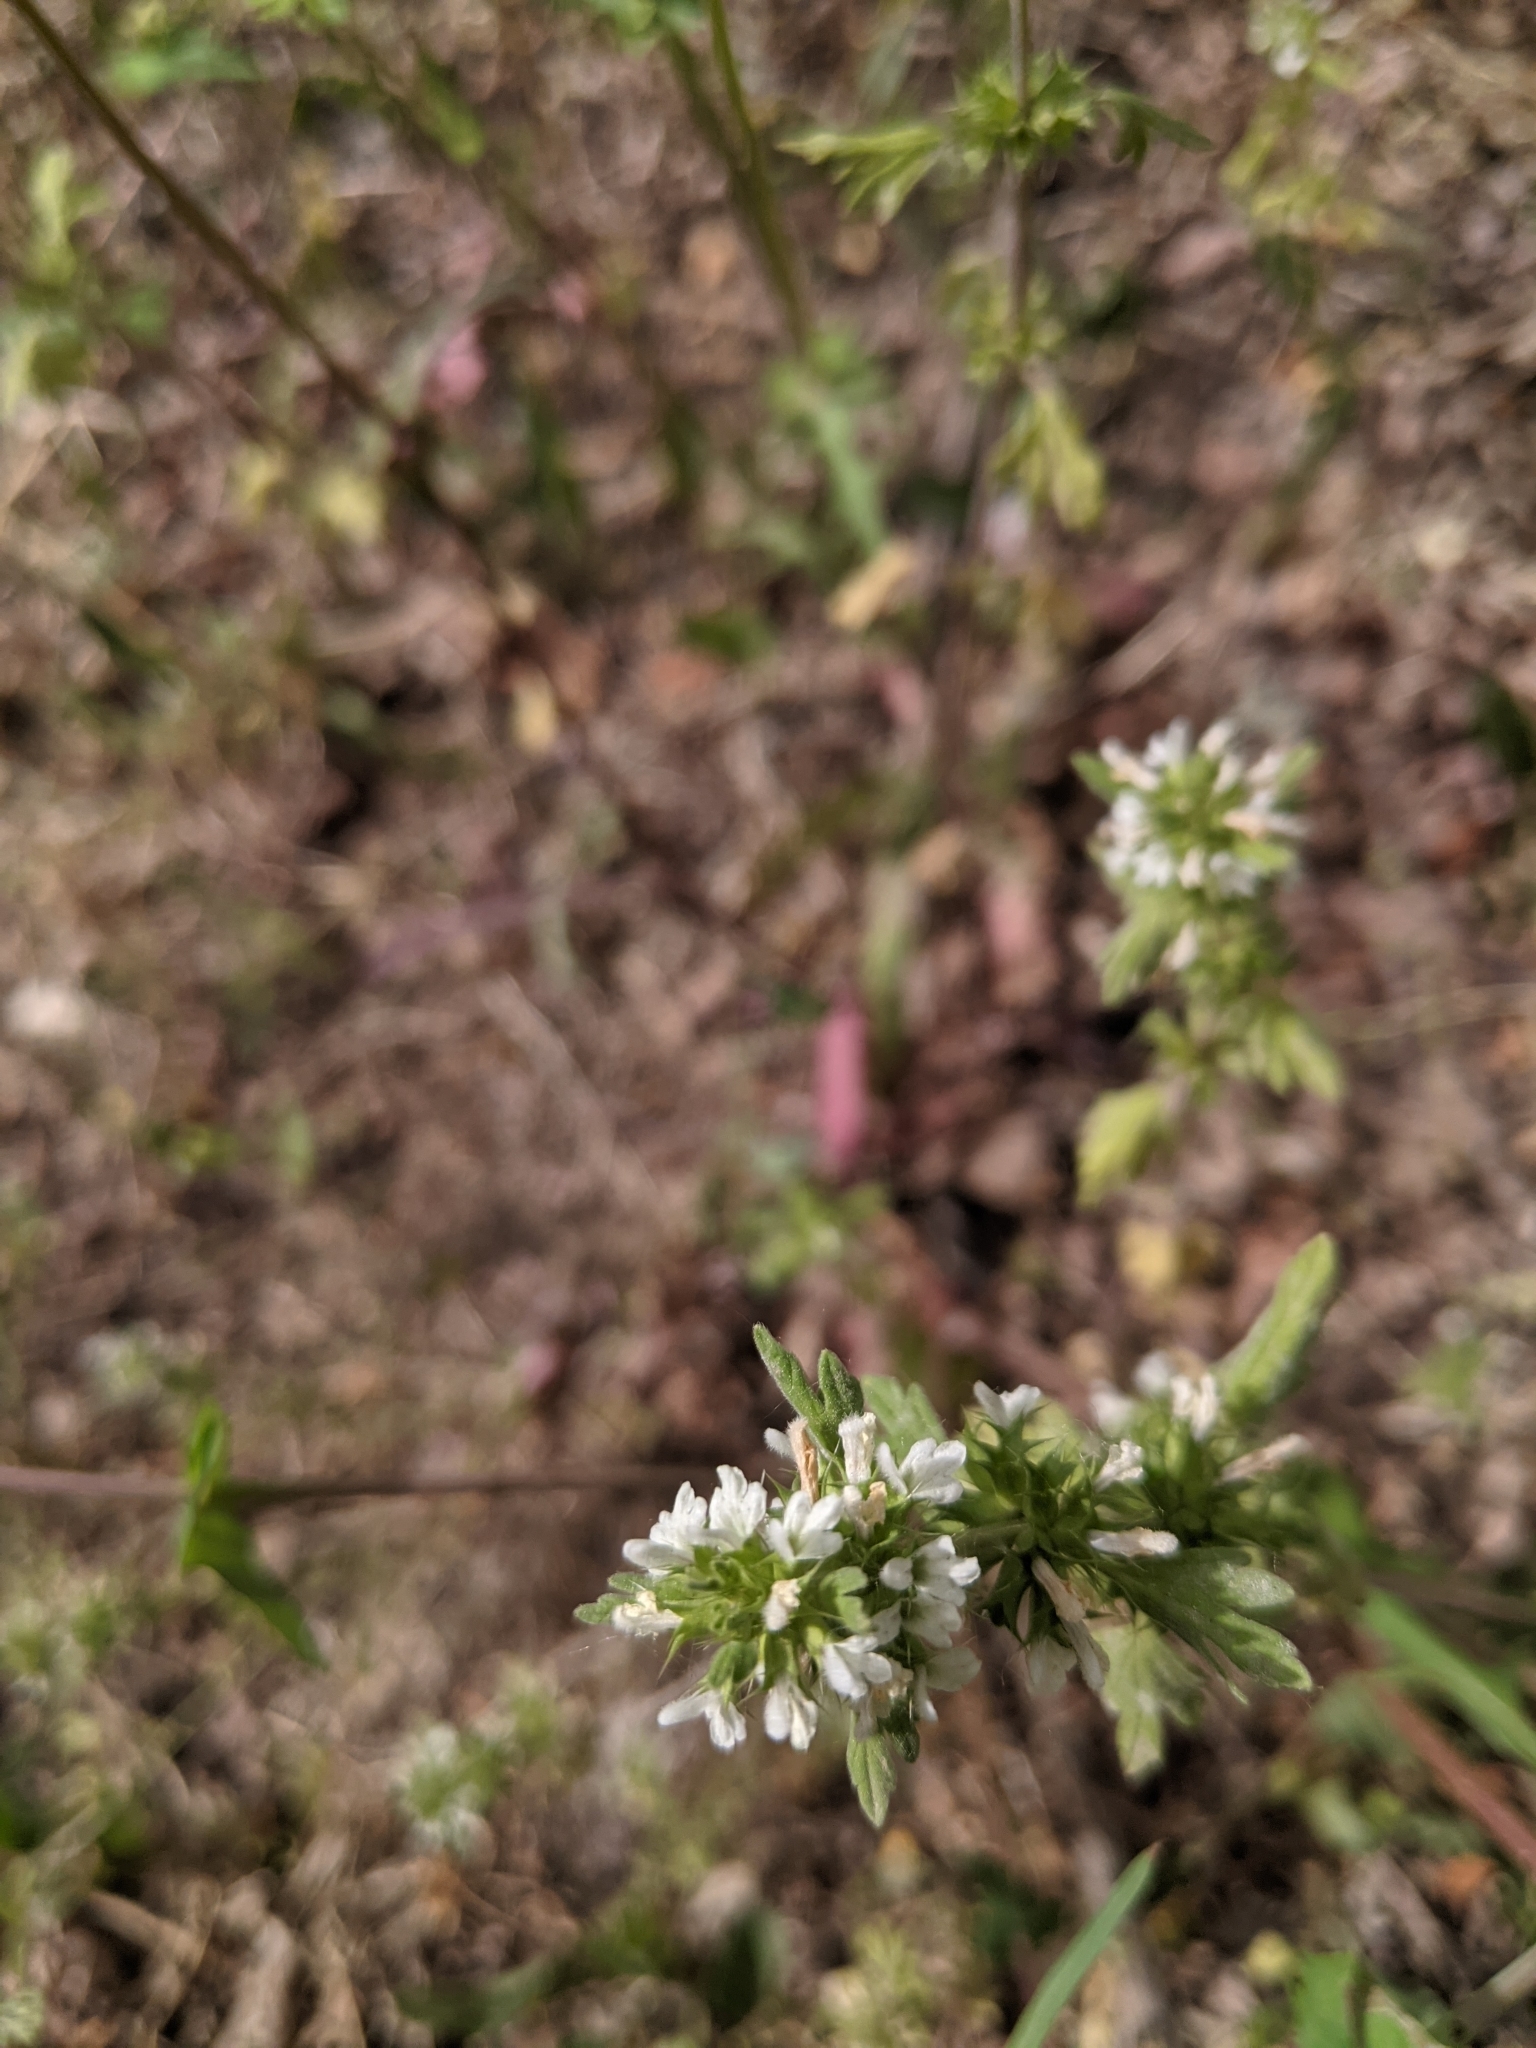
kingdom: Plantae
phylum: Tracheophyta
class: Magnoliopsida
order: Lamiales
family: Lamiaceae
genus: Lagopsis
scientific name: Lagopsis supina
